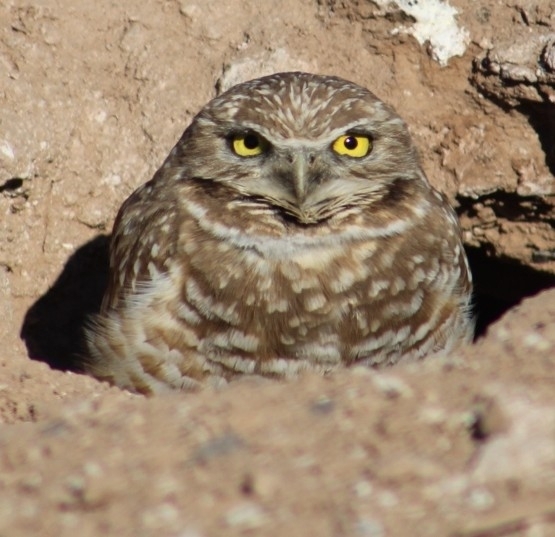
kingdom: Animalia
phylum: Chordata
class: Aves
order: Strigiformes
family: Strigidae
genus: Athene
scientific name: Athene cunicularia
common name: Burrowing owl
